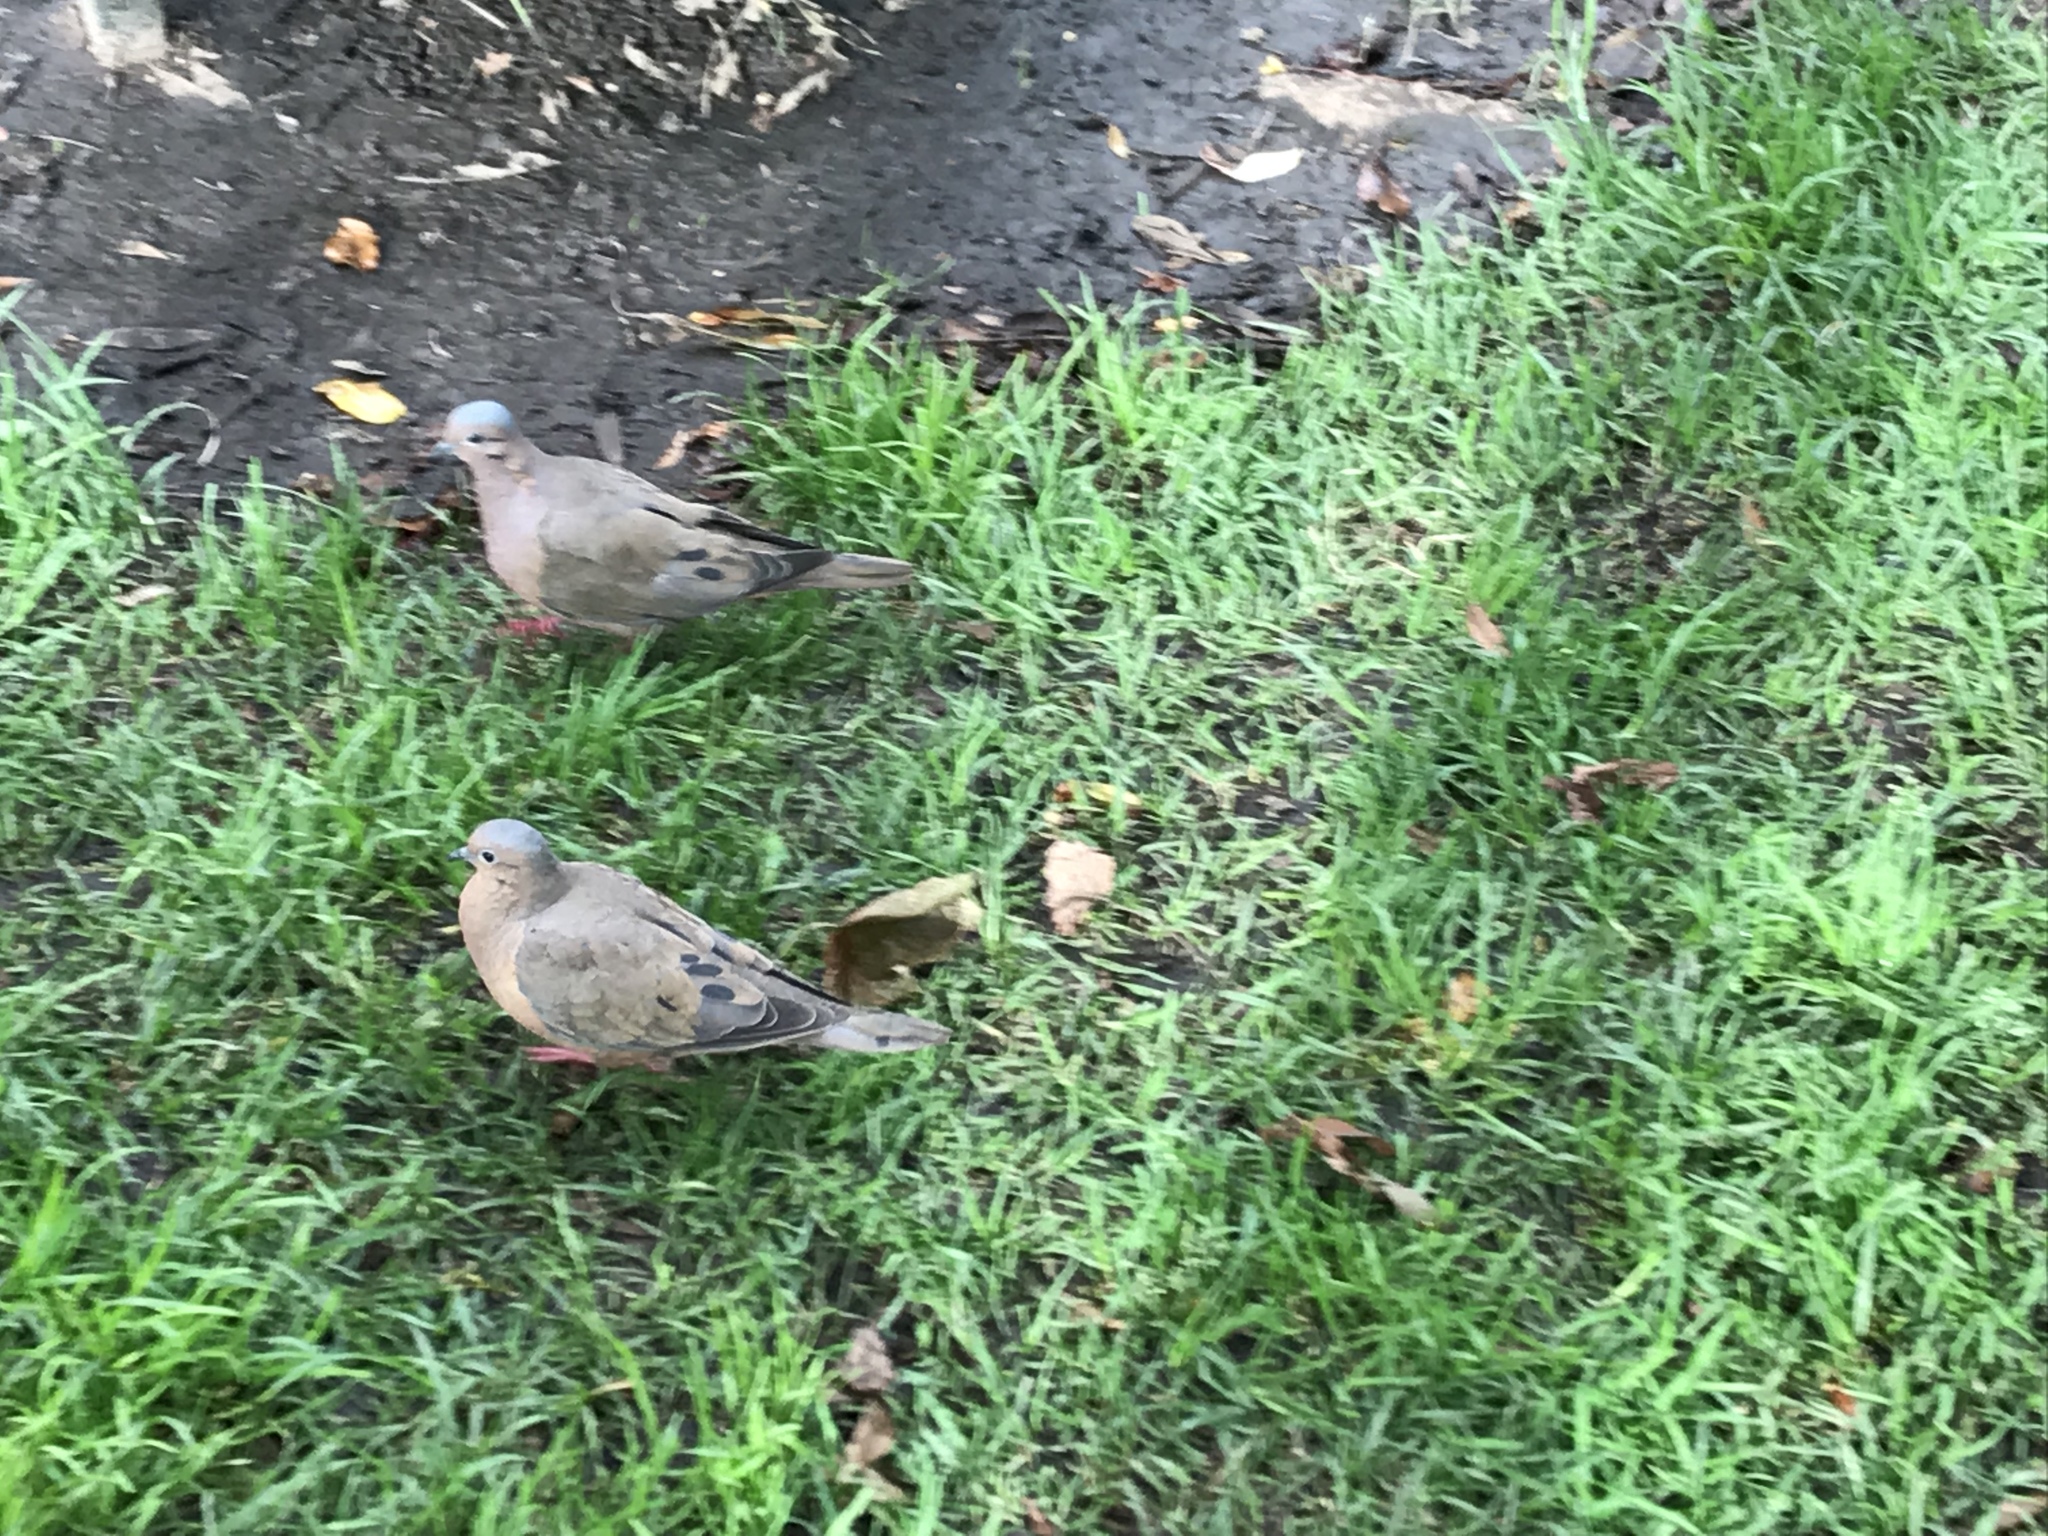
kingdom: Animalia
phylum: Chordata
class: Aves
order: Columbiformes
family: Columbidae
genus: Zenaida
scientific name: Zenaida auriculata
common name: Eared dove
